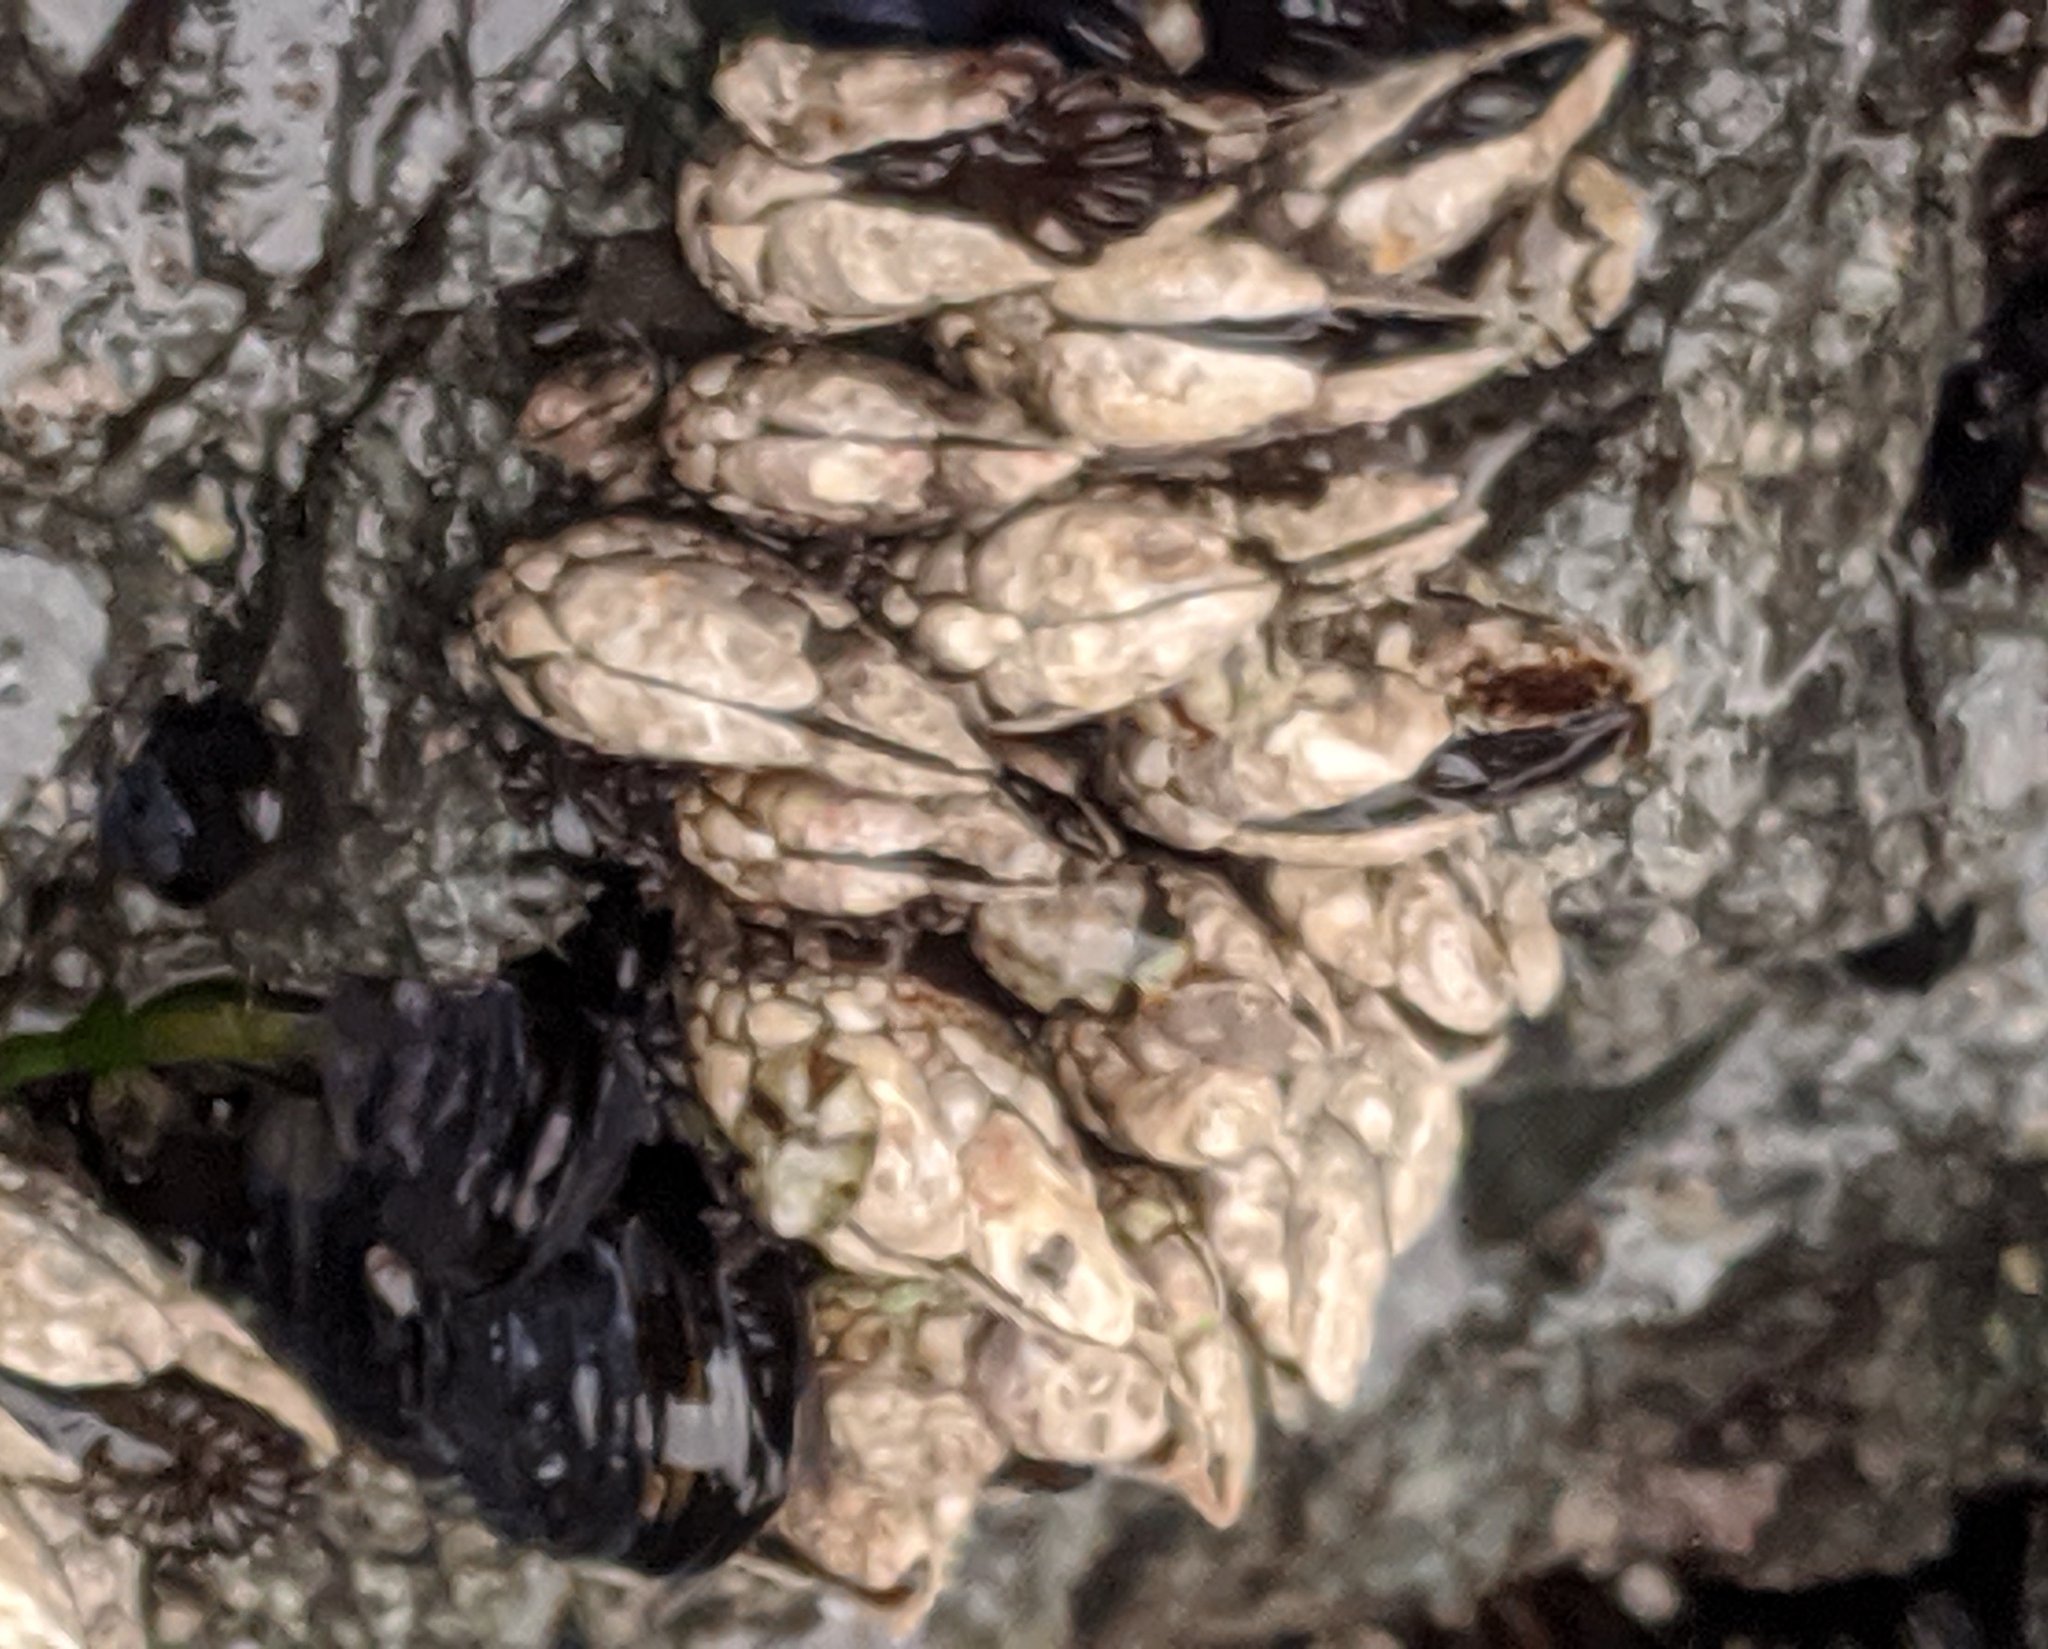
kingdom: Animalia
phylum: Arthropoda
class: Maxillopoda
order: Pedunculata
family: Pollicipedidae
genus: Pollicipes
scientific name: Pollicipes polymerus
